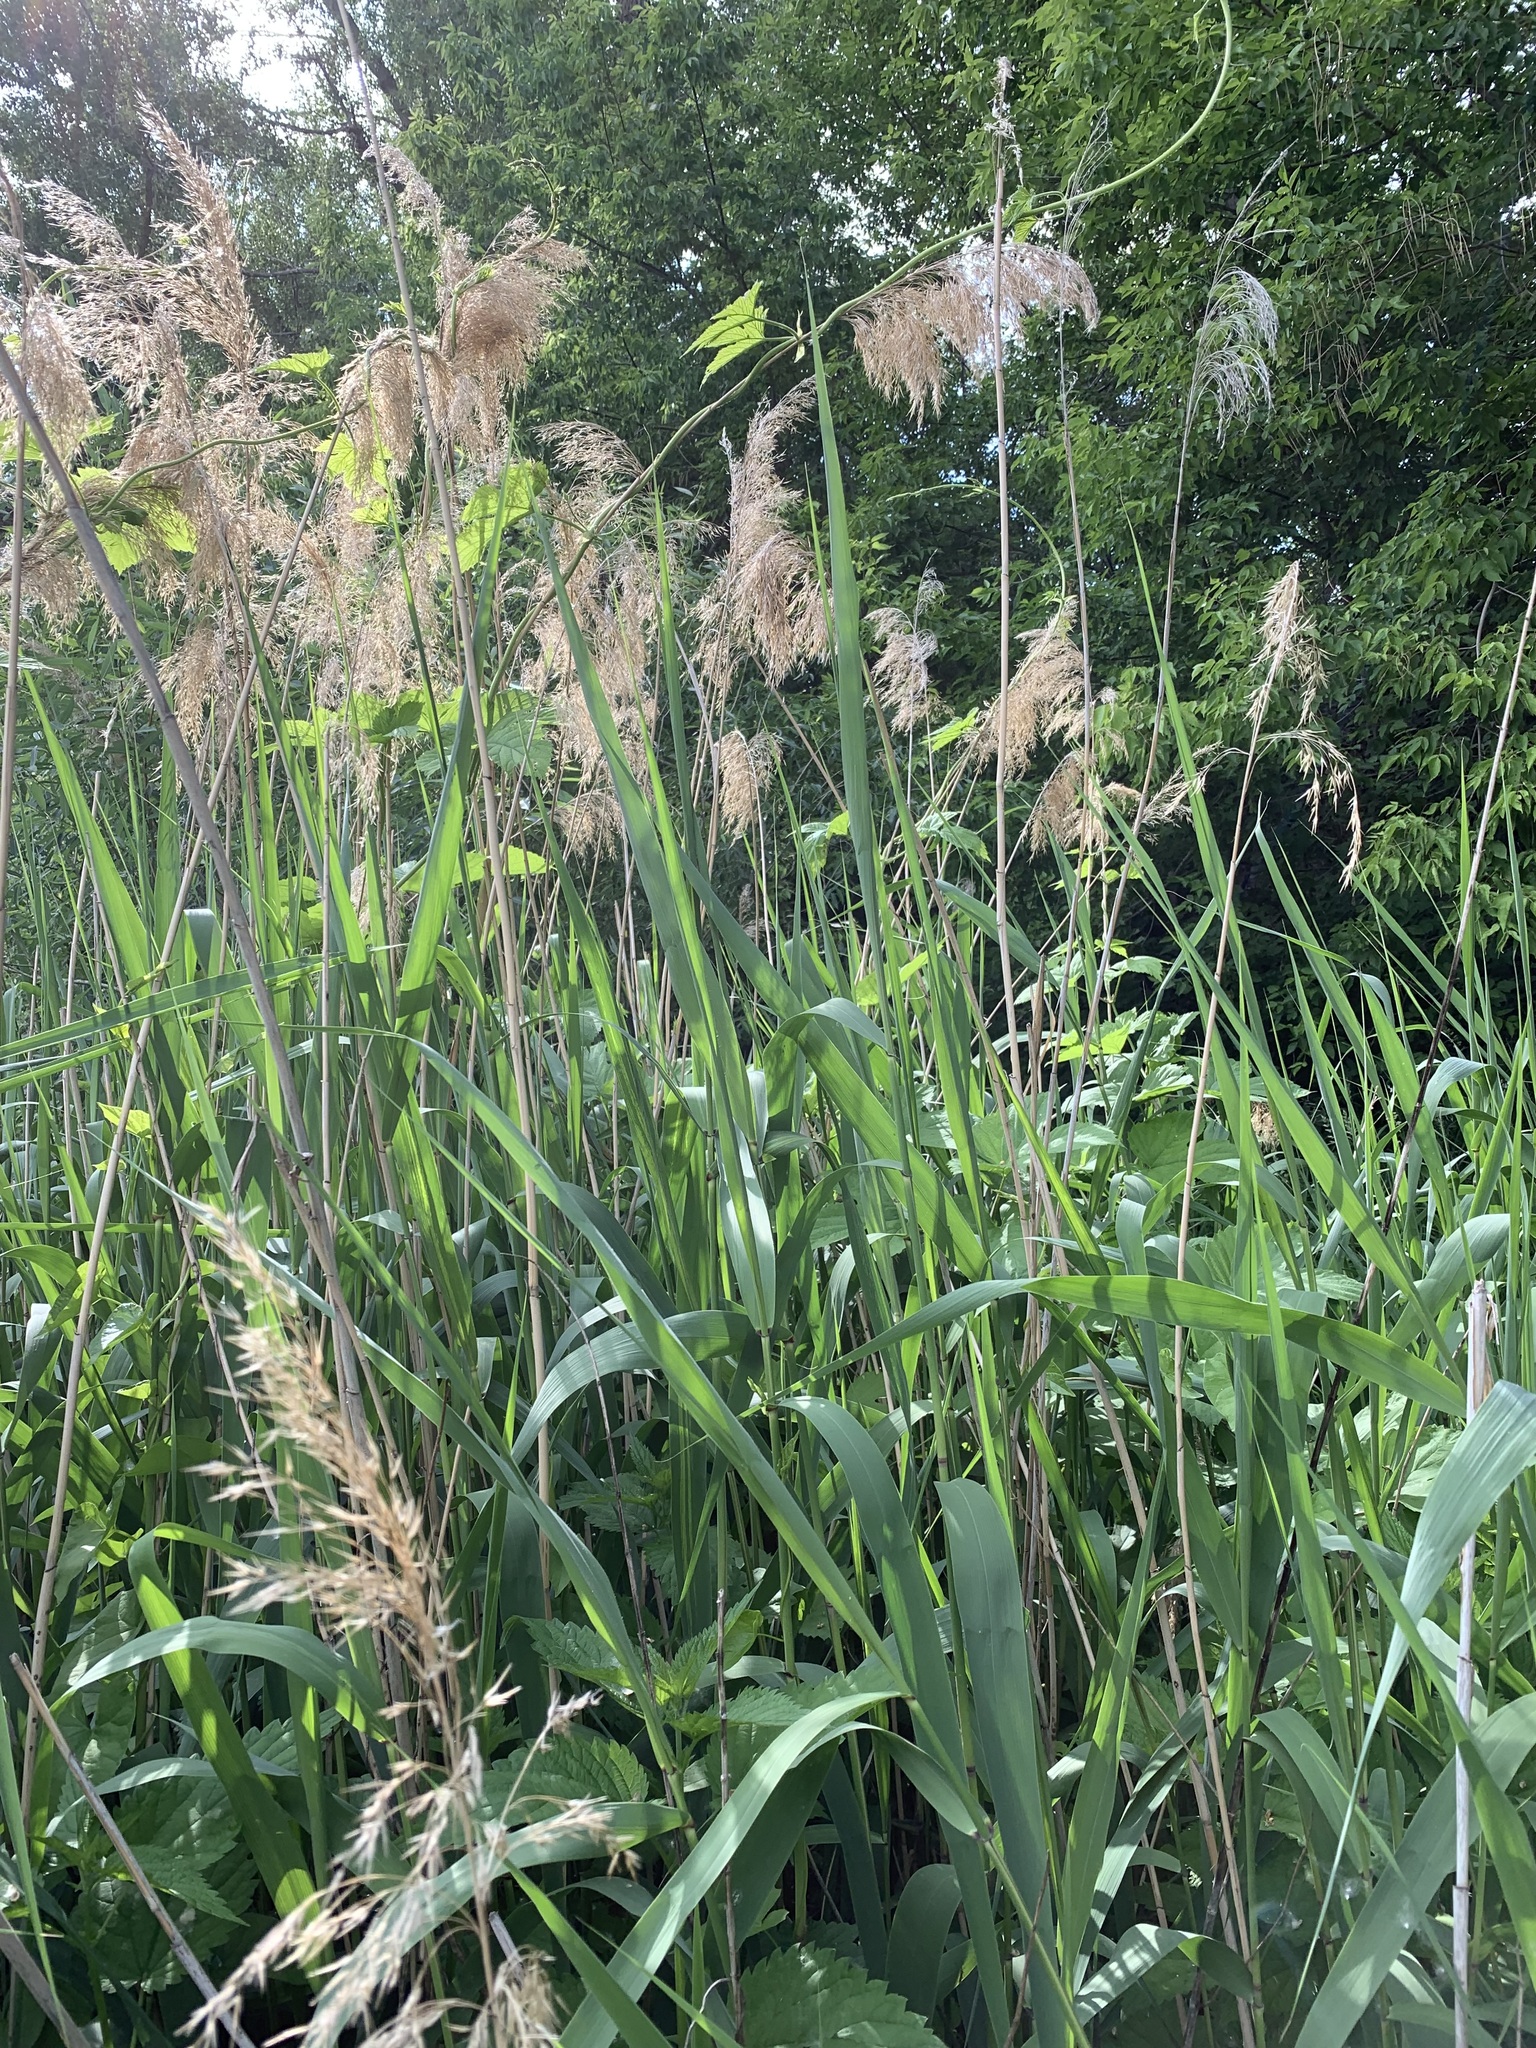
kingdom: Plantae
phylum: Tracheophyta
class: Liliopsida
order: Poales
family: Poaceae
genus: Phragmites
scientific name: Phragmites australis
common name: Common reed
